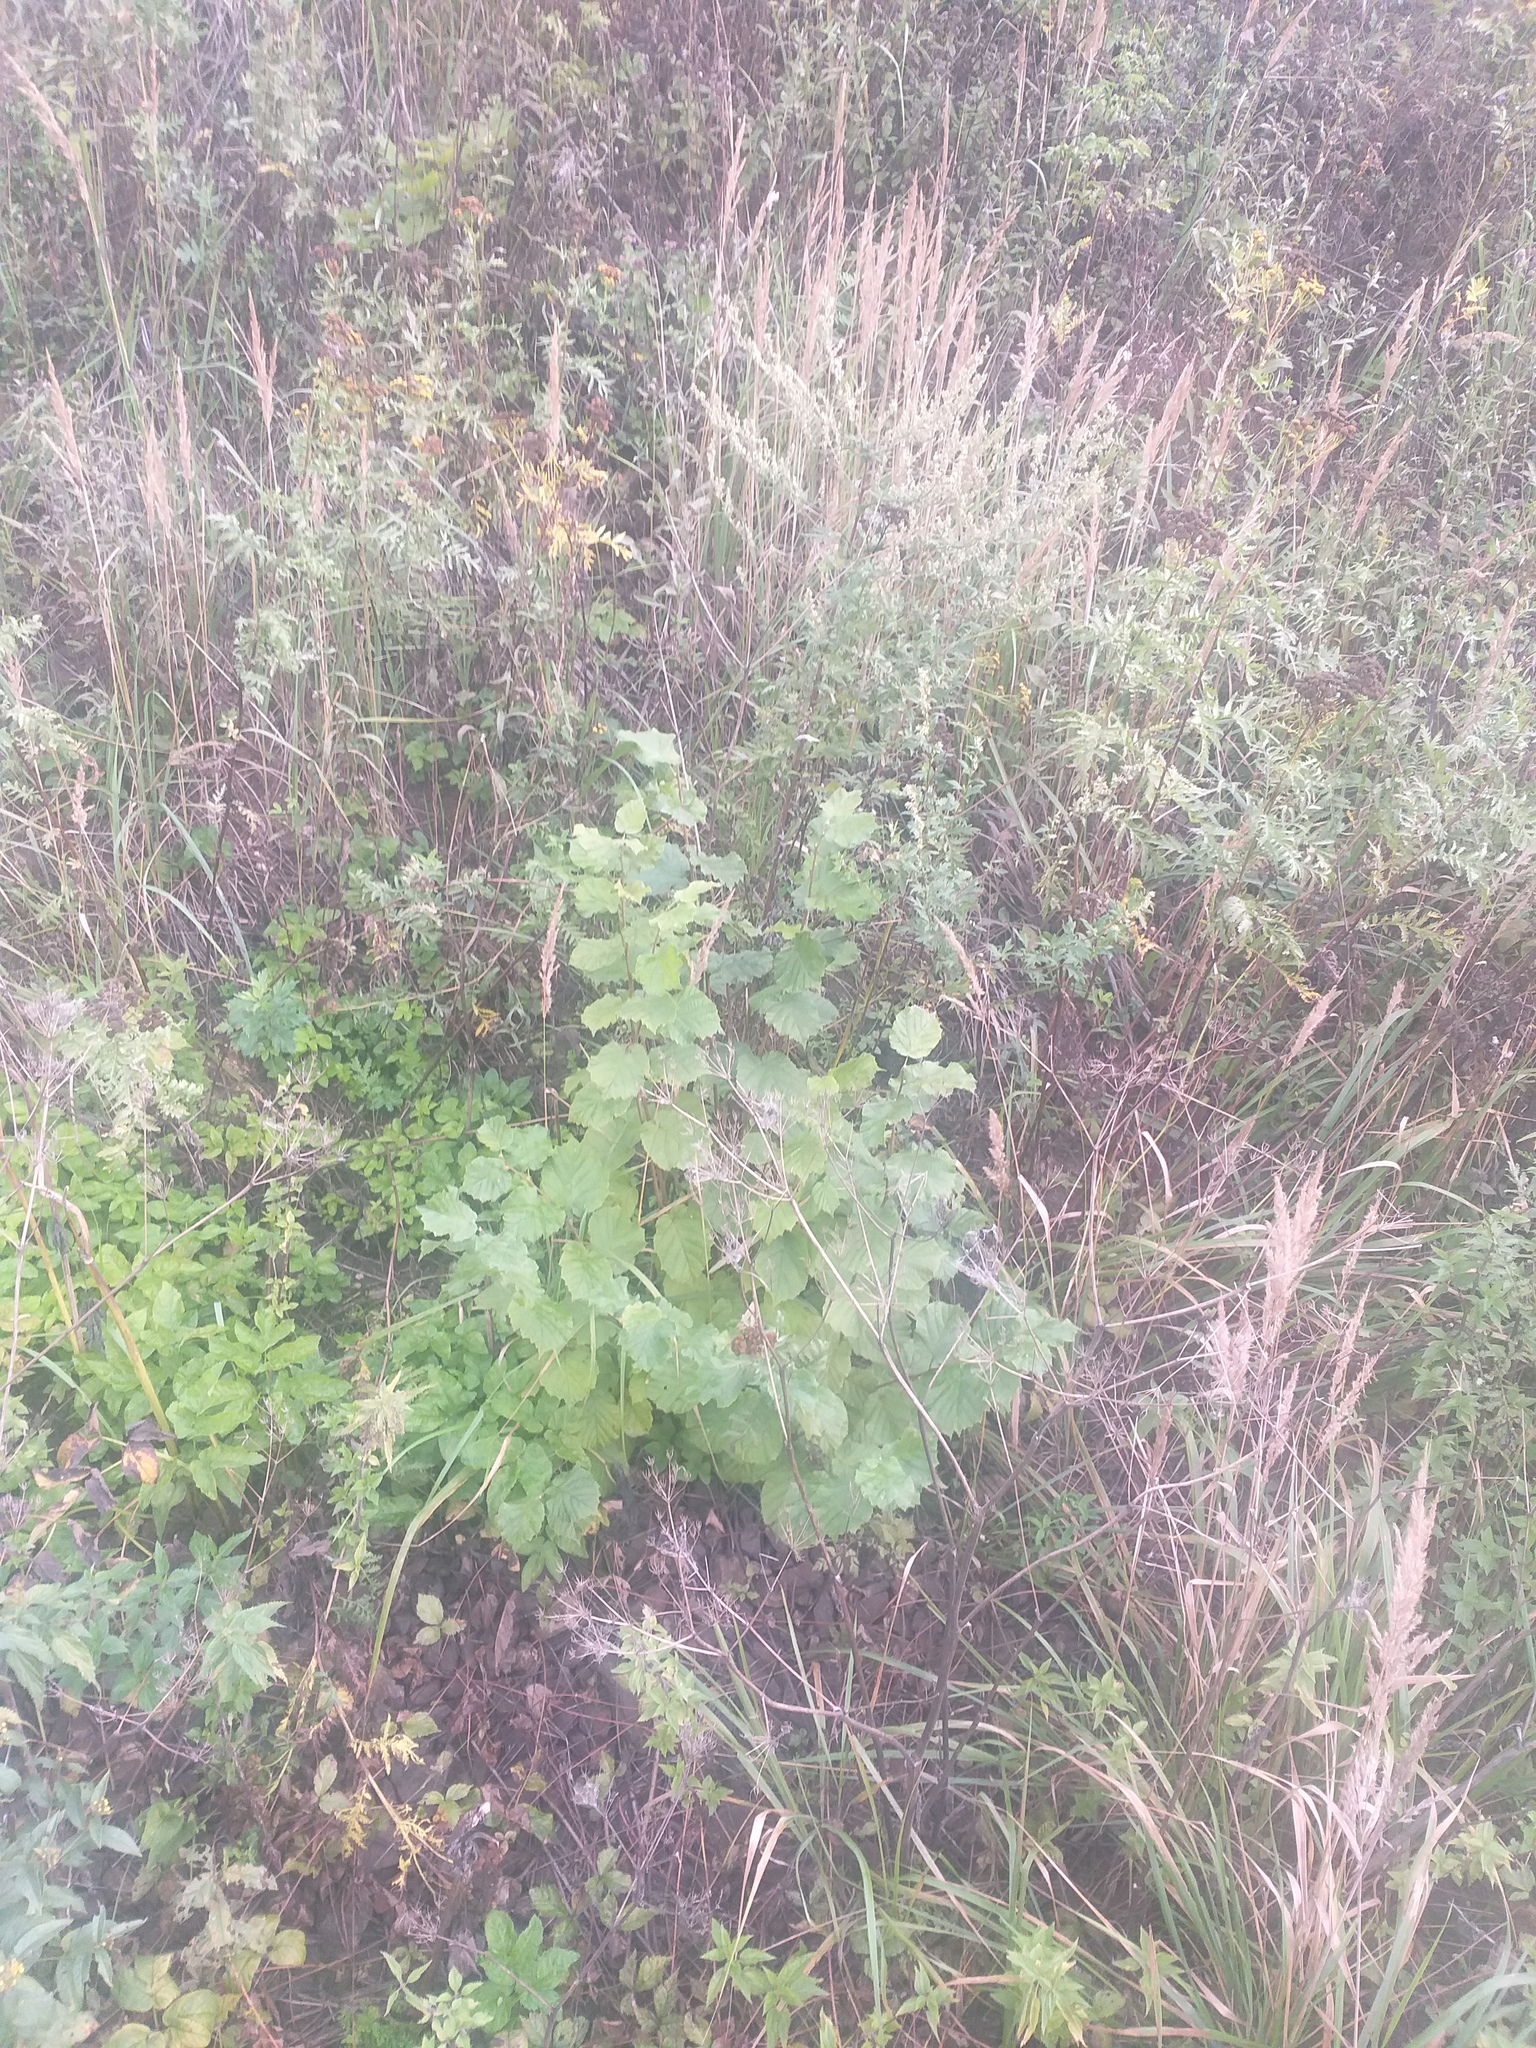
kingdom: Plantae
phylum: Tracheophyta
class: Magnoliopsida
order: Fagales
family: Betulaceae
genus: Corylus
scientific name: Corylus avellana
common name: European hazel
